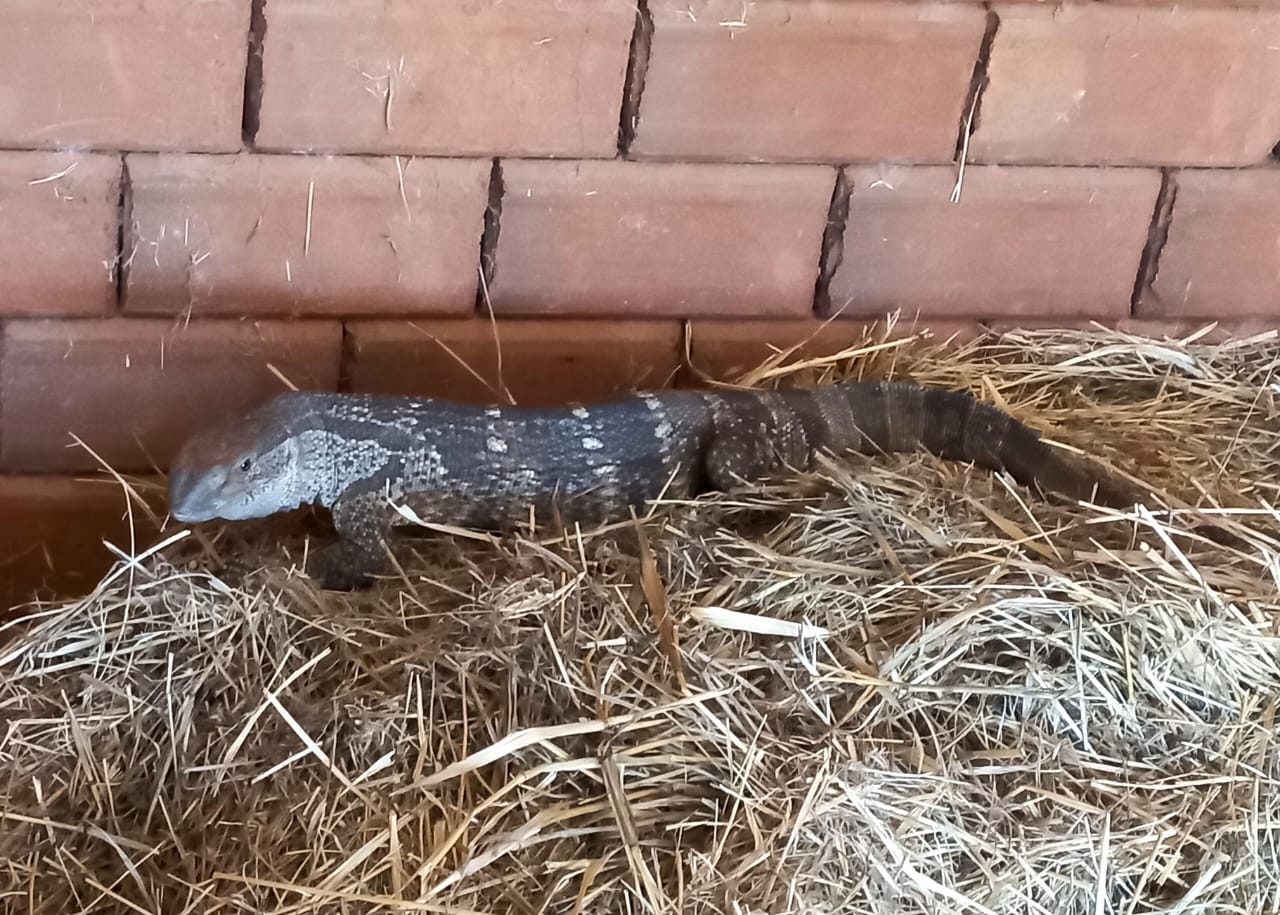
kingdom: Animalia
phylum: Chordata
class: Squamata
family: Varanidae
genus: Varanus
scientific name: Varanus albigularis
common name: White-throated monitor
